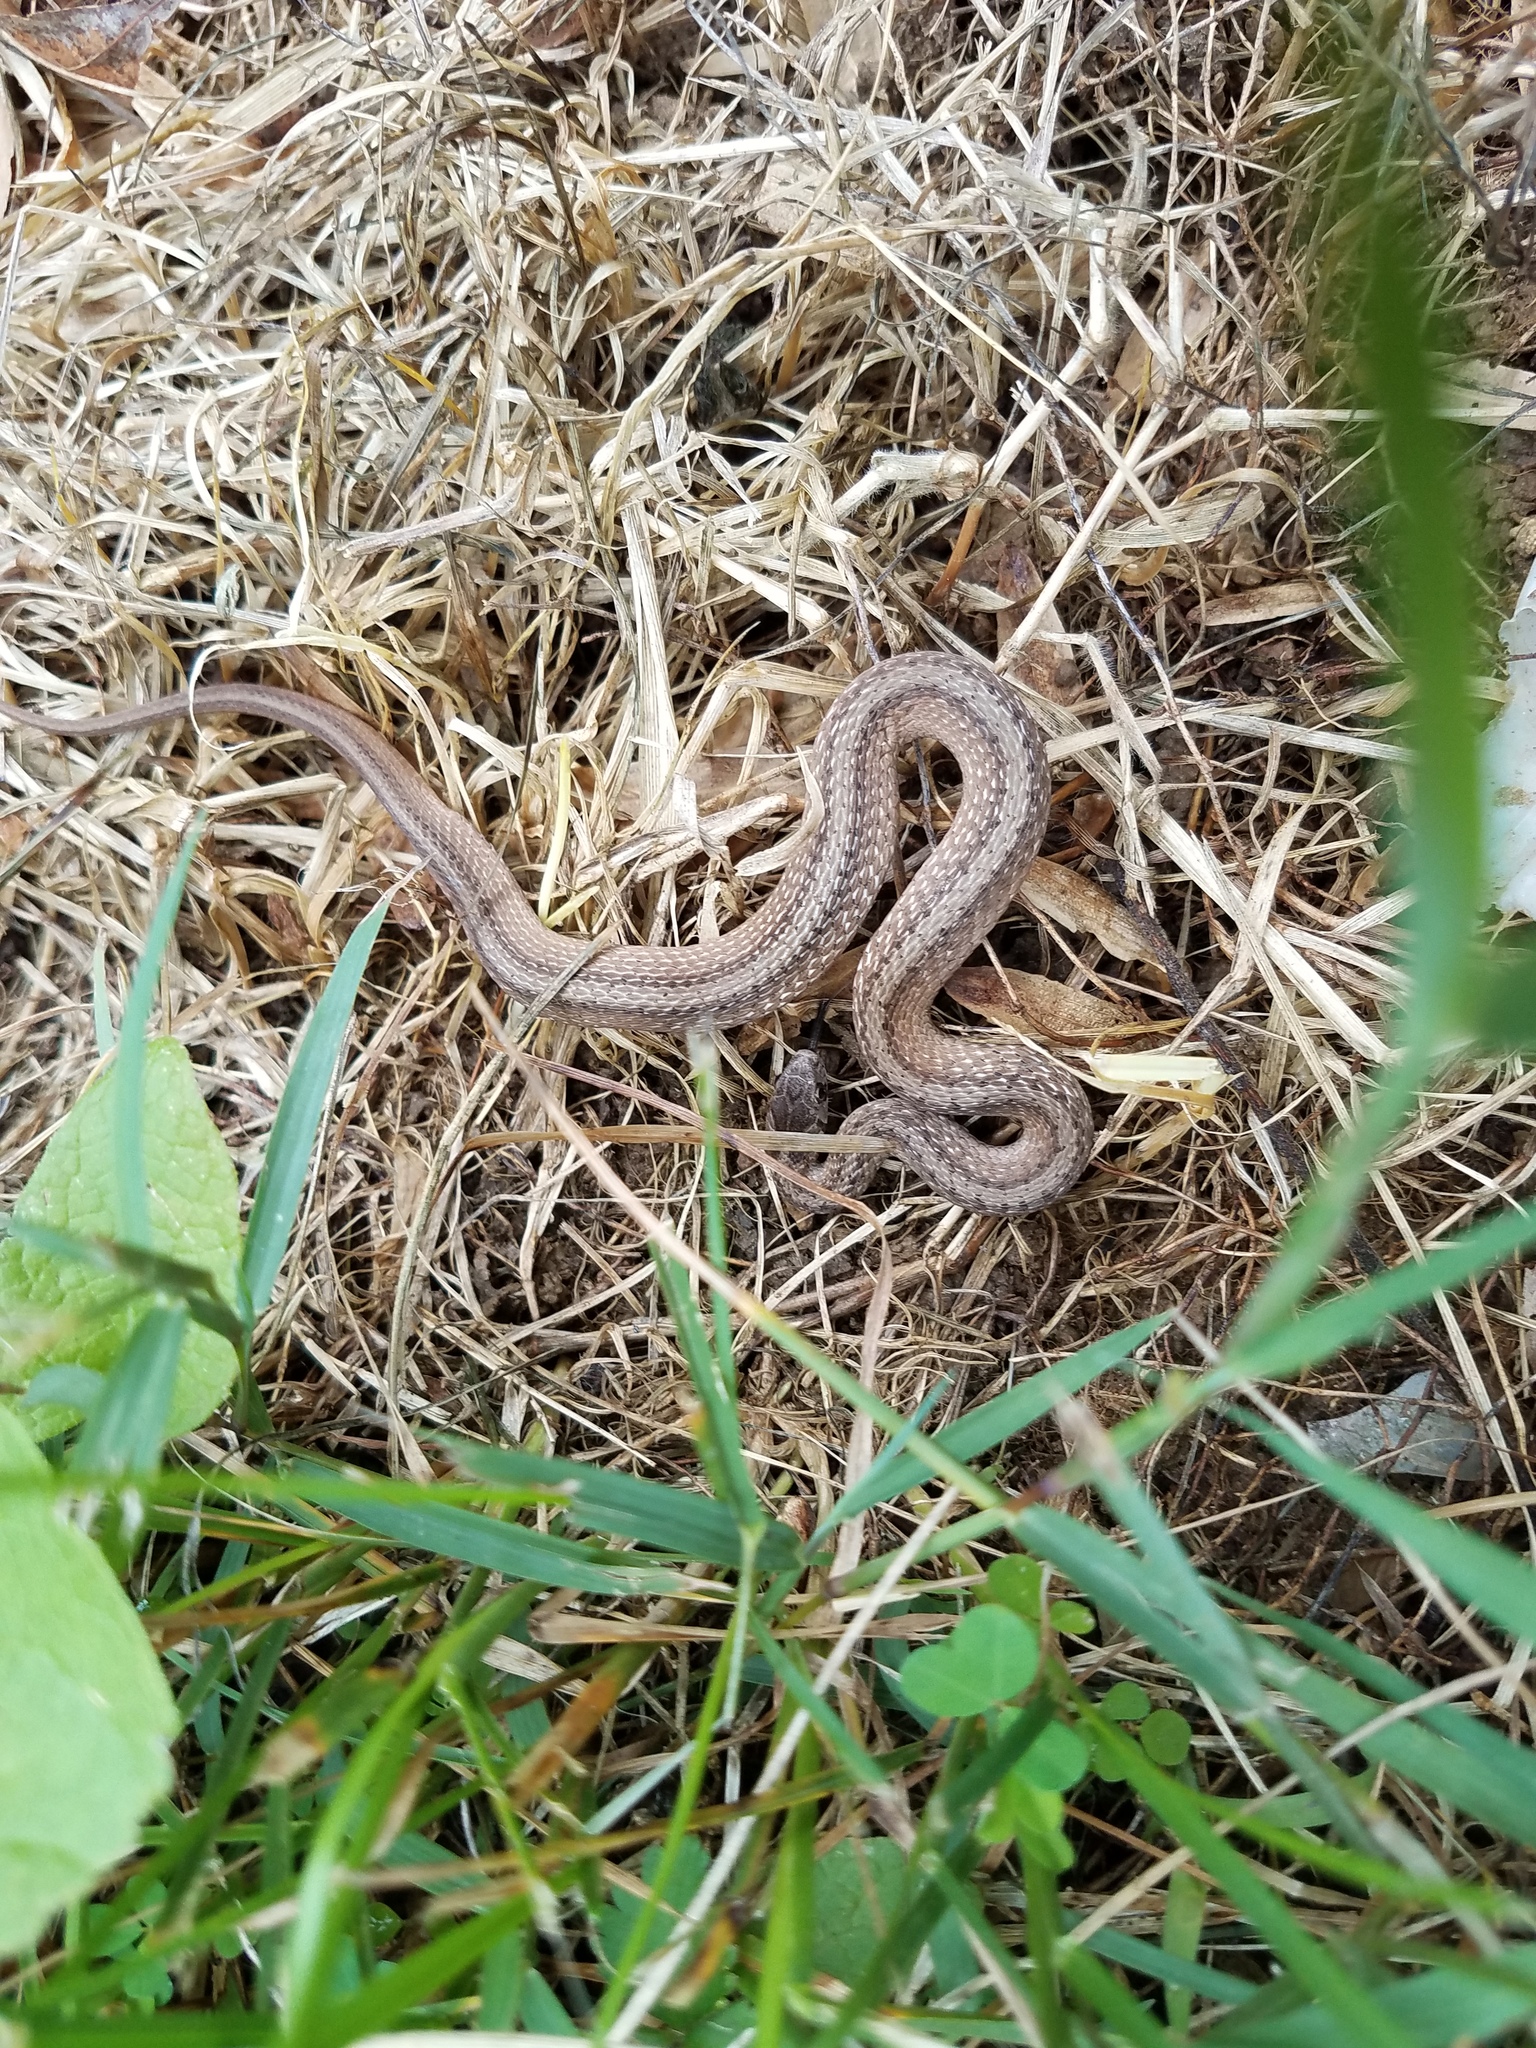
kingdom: Animalia
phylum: Chordata
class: Squamata
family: Colubridae
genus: Storeria
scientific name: Storeria dekayi
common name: (dekay’s) brown snake
